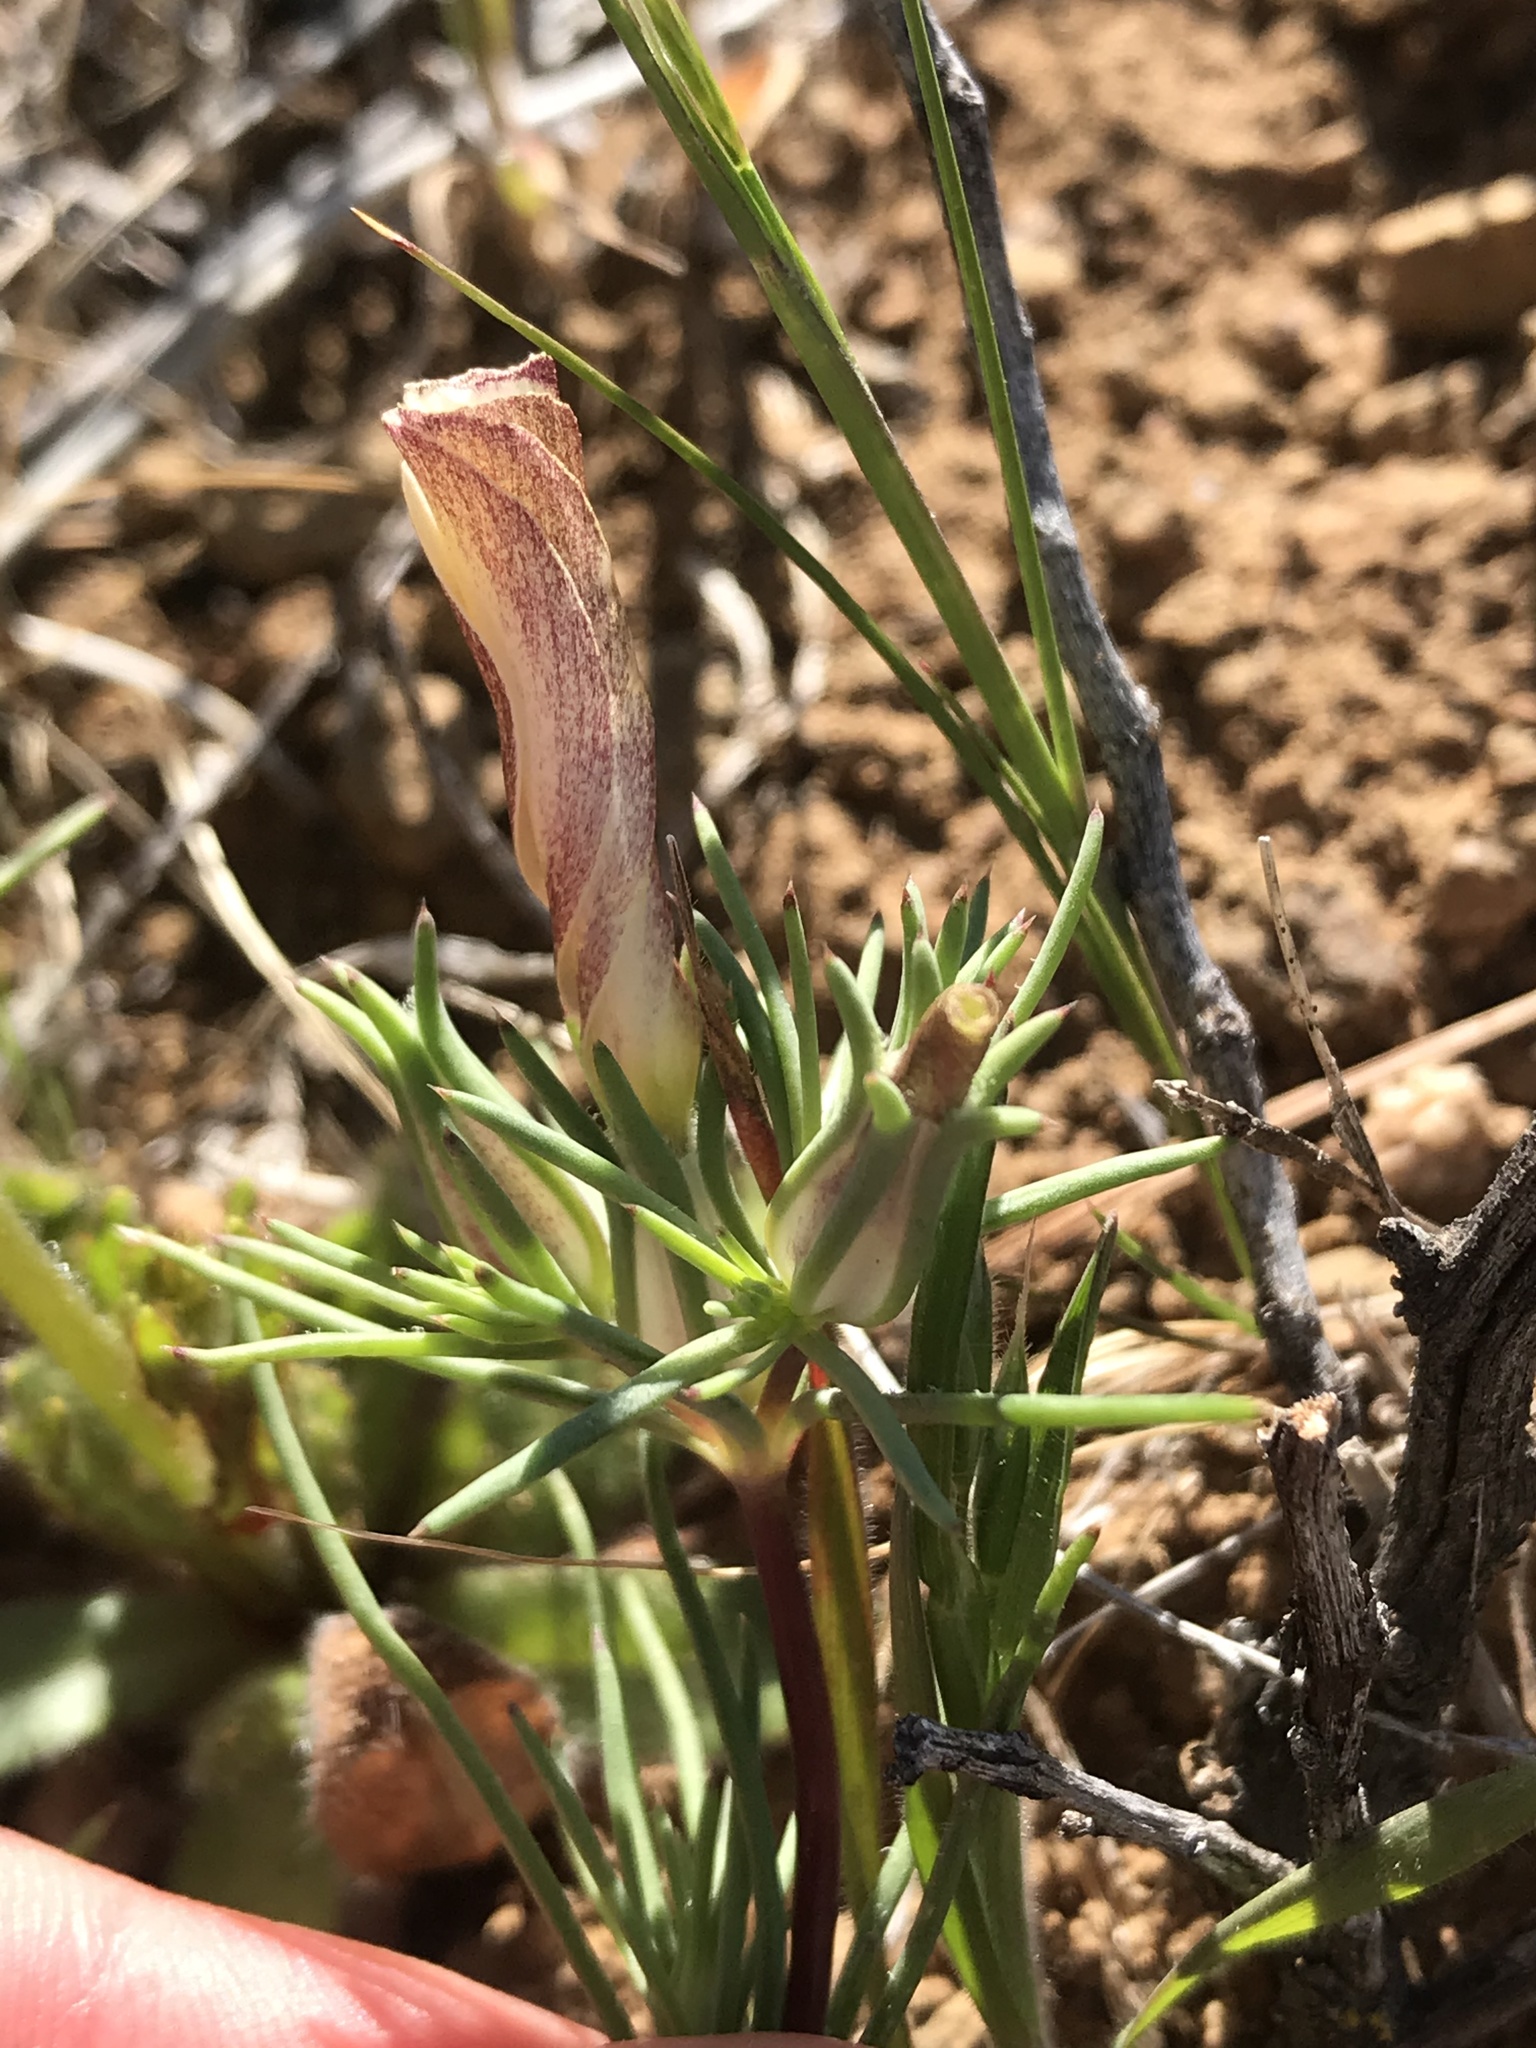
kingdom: Plantae
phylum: Tracheophyta
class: Magnoliopsida
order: Ericales
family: Polemoniaceae
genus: Linanthus
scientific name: Linanthus dichotomus
